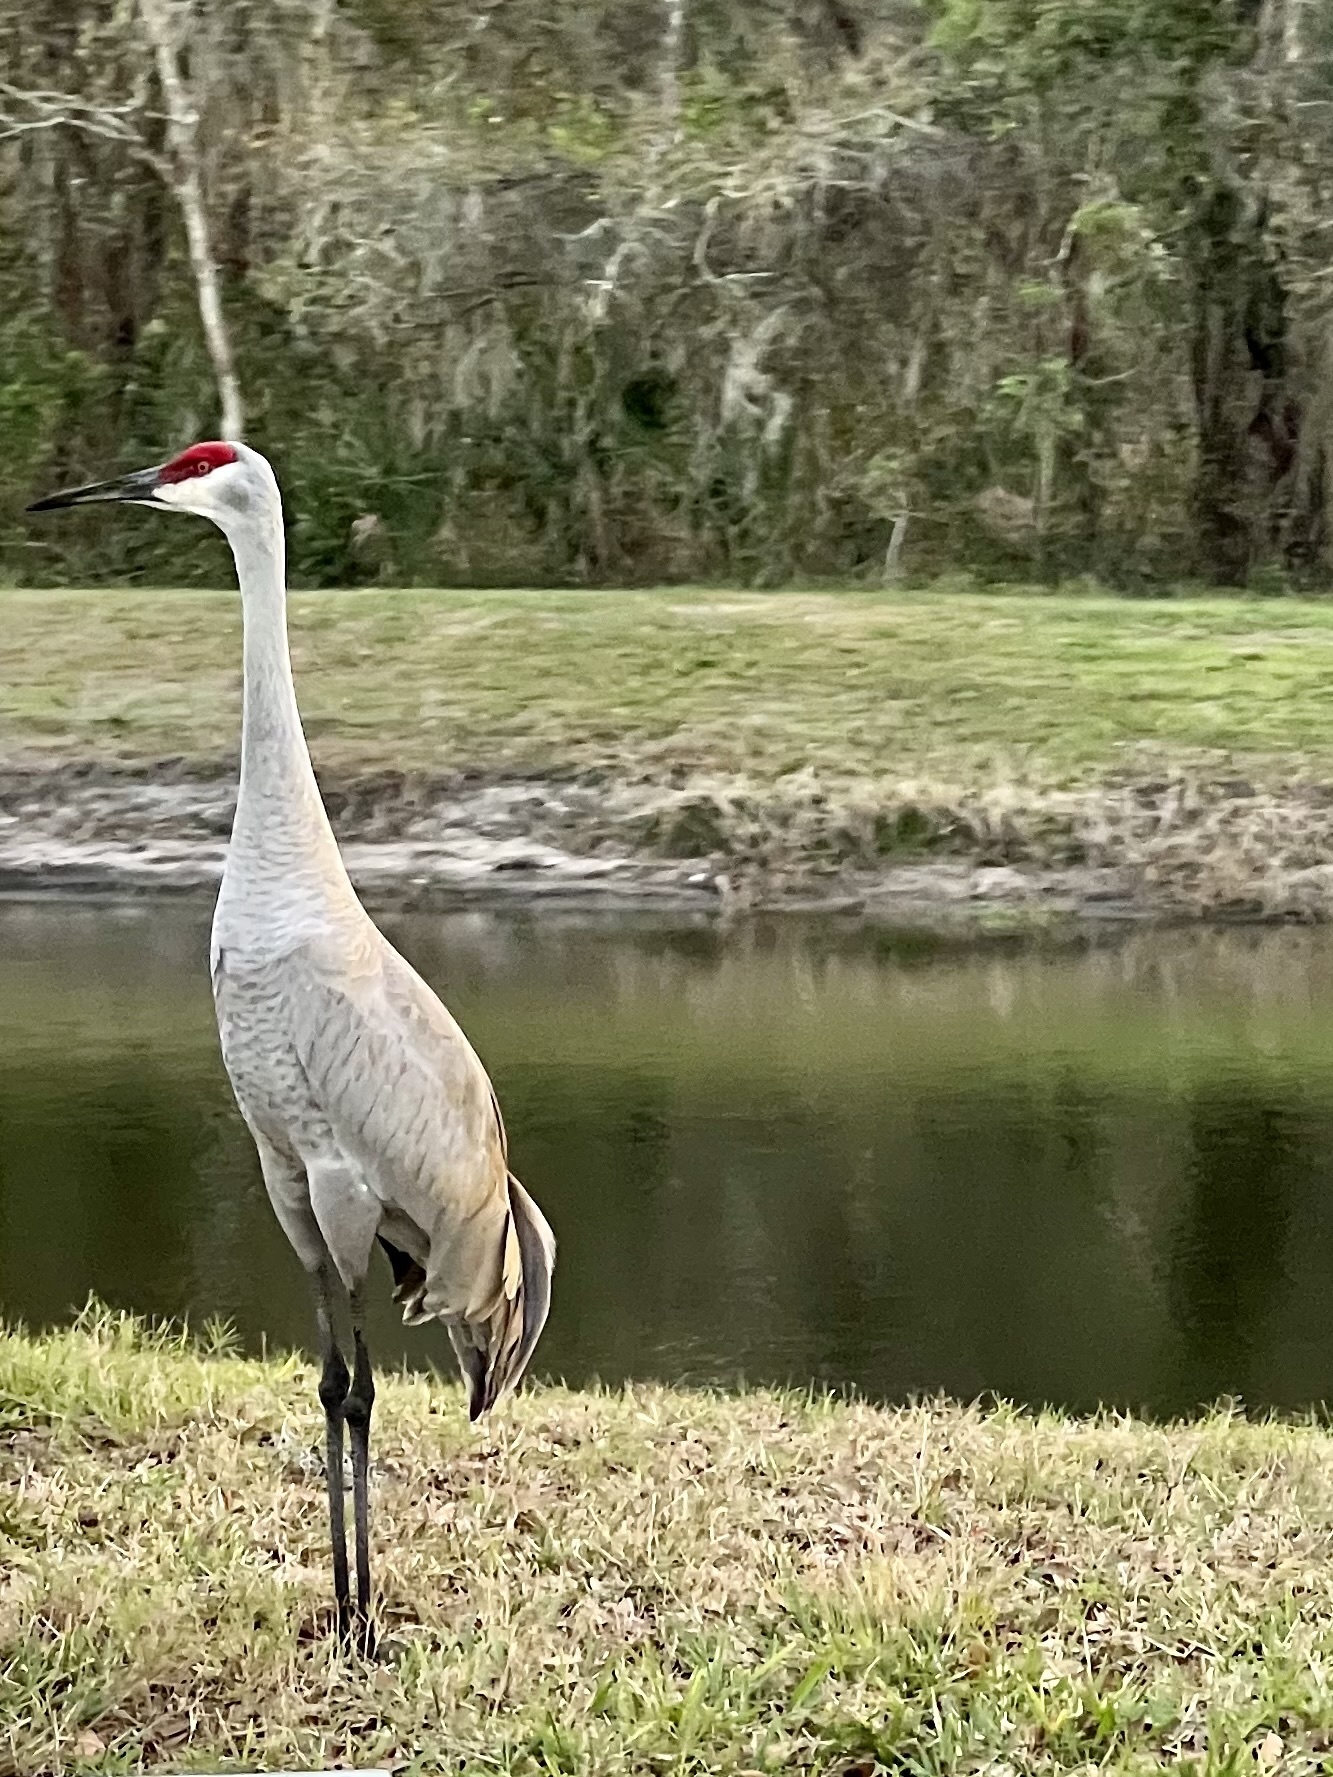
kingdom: Animalia
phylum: Chordata
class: Aves
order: Gruiformes
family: Gruidae
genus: Grus
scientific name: Grus canadensis
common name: Sandhill crane
